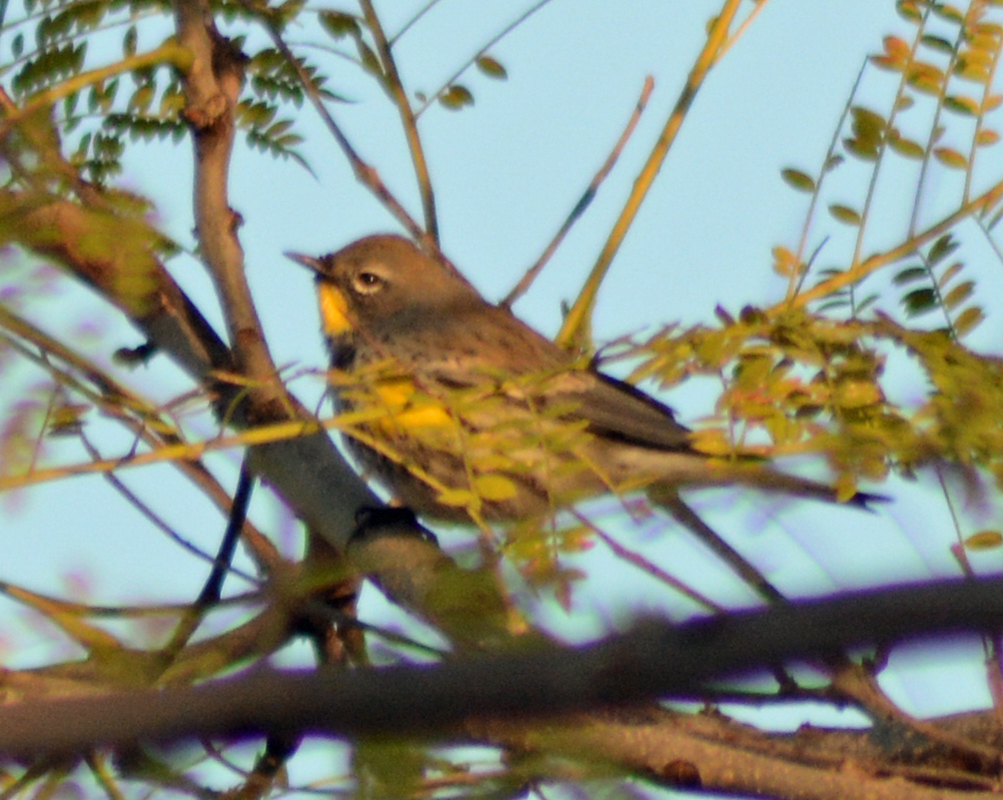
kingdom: Animalia
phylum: Chordata
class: Aves
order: Passeriformes
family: Parulidae
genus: Setophaga
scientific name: Setophaga auduboni
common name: Audubon's warbler
